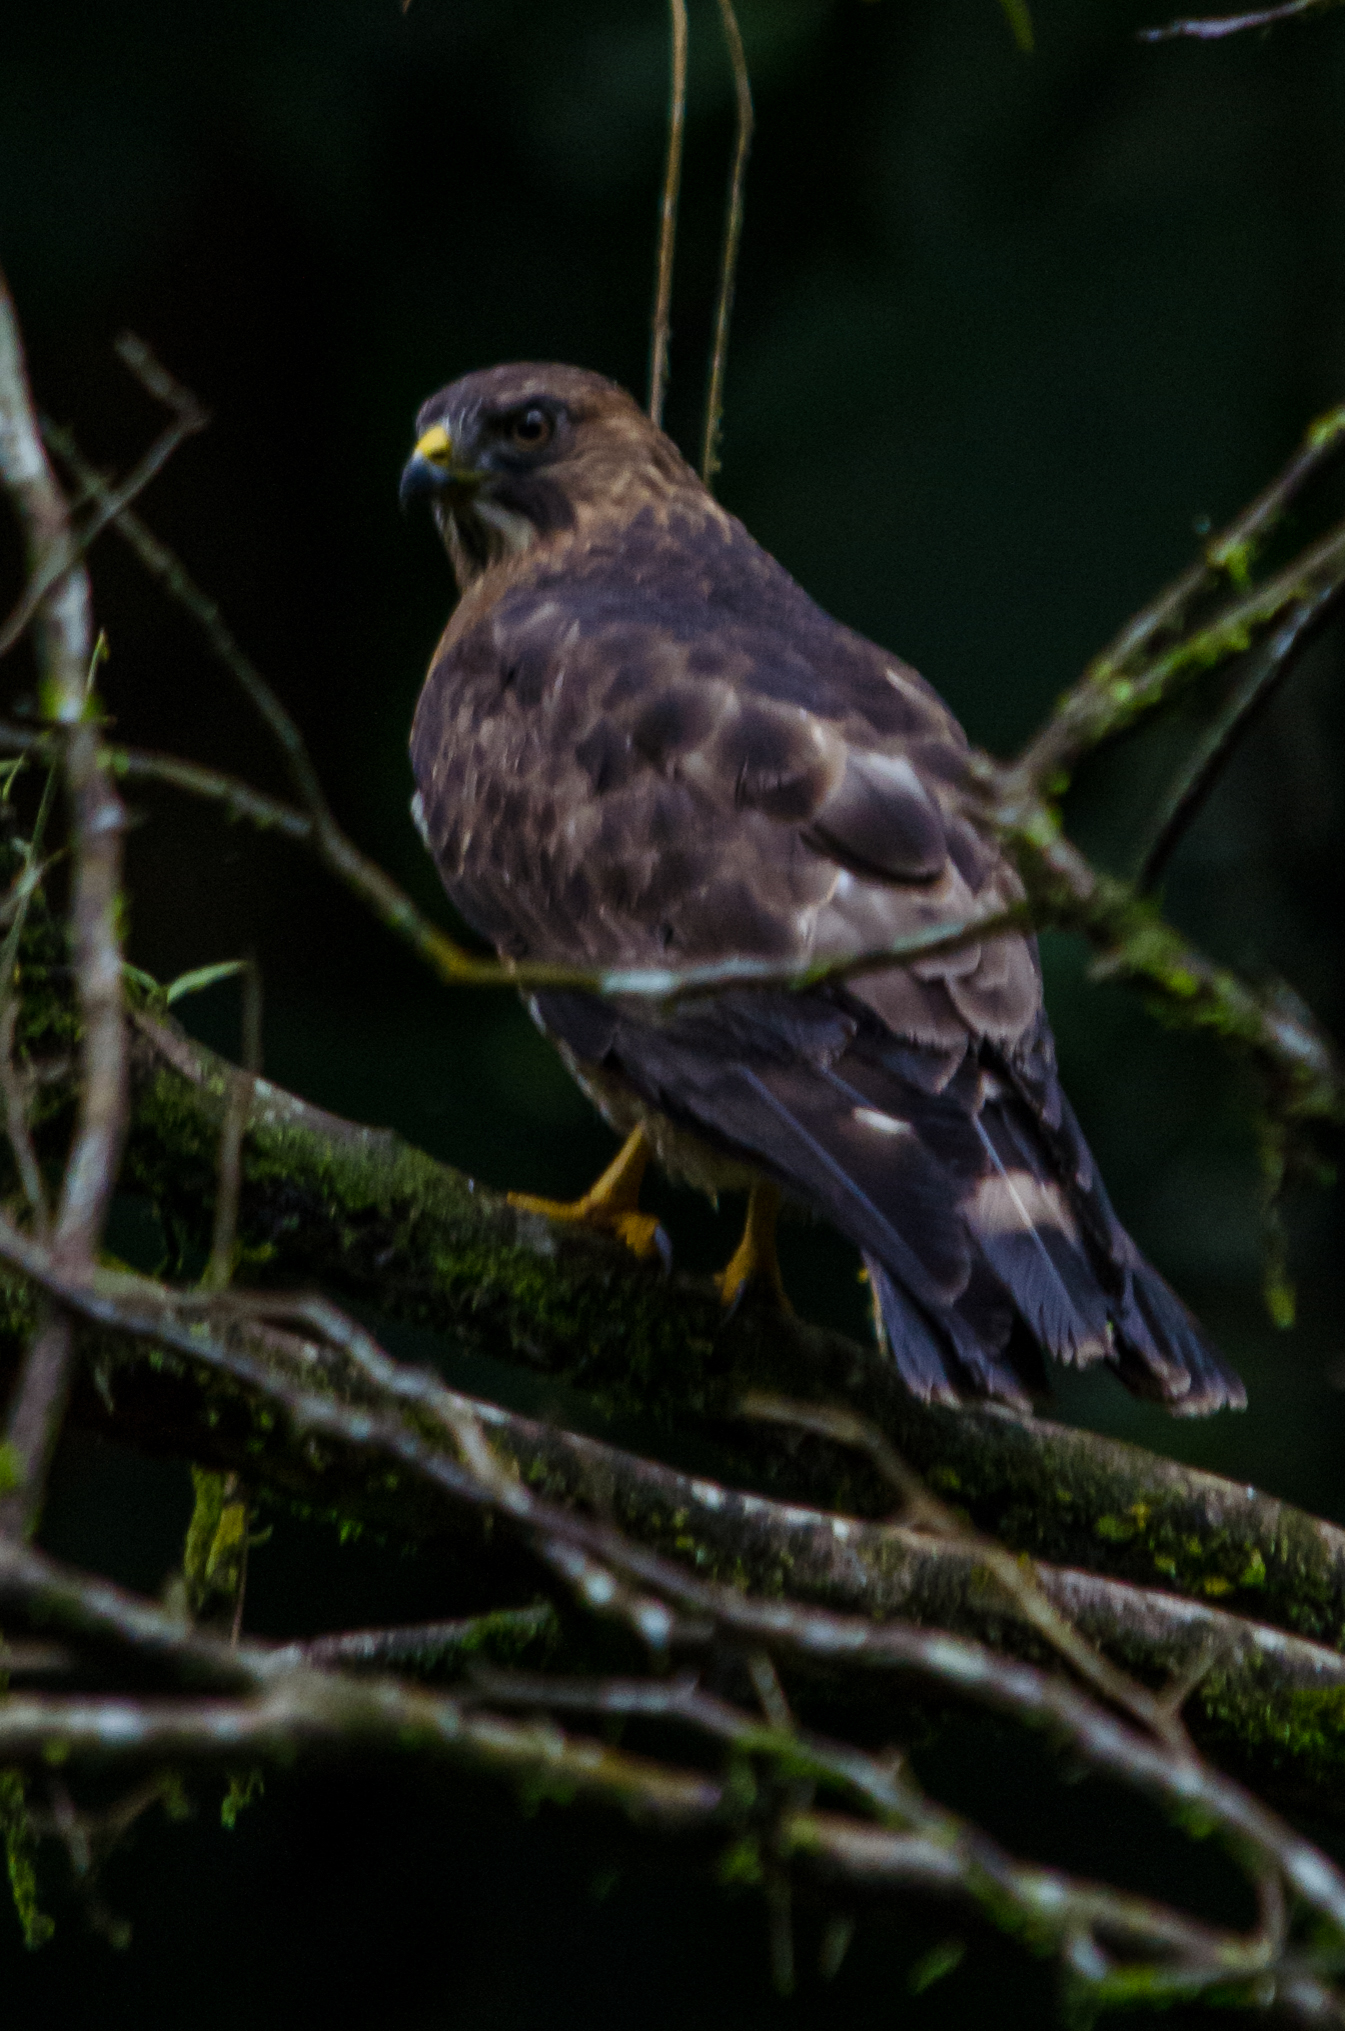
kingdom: Animalia
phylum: Chordata
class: Aves
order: Accipitriformes
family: Accipitridae
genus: Buteo
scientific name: Buteo platypterus
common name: Broad-winged hawk
